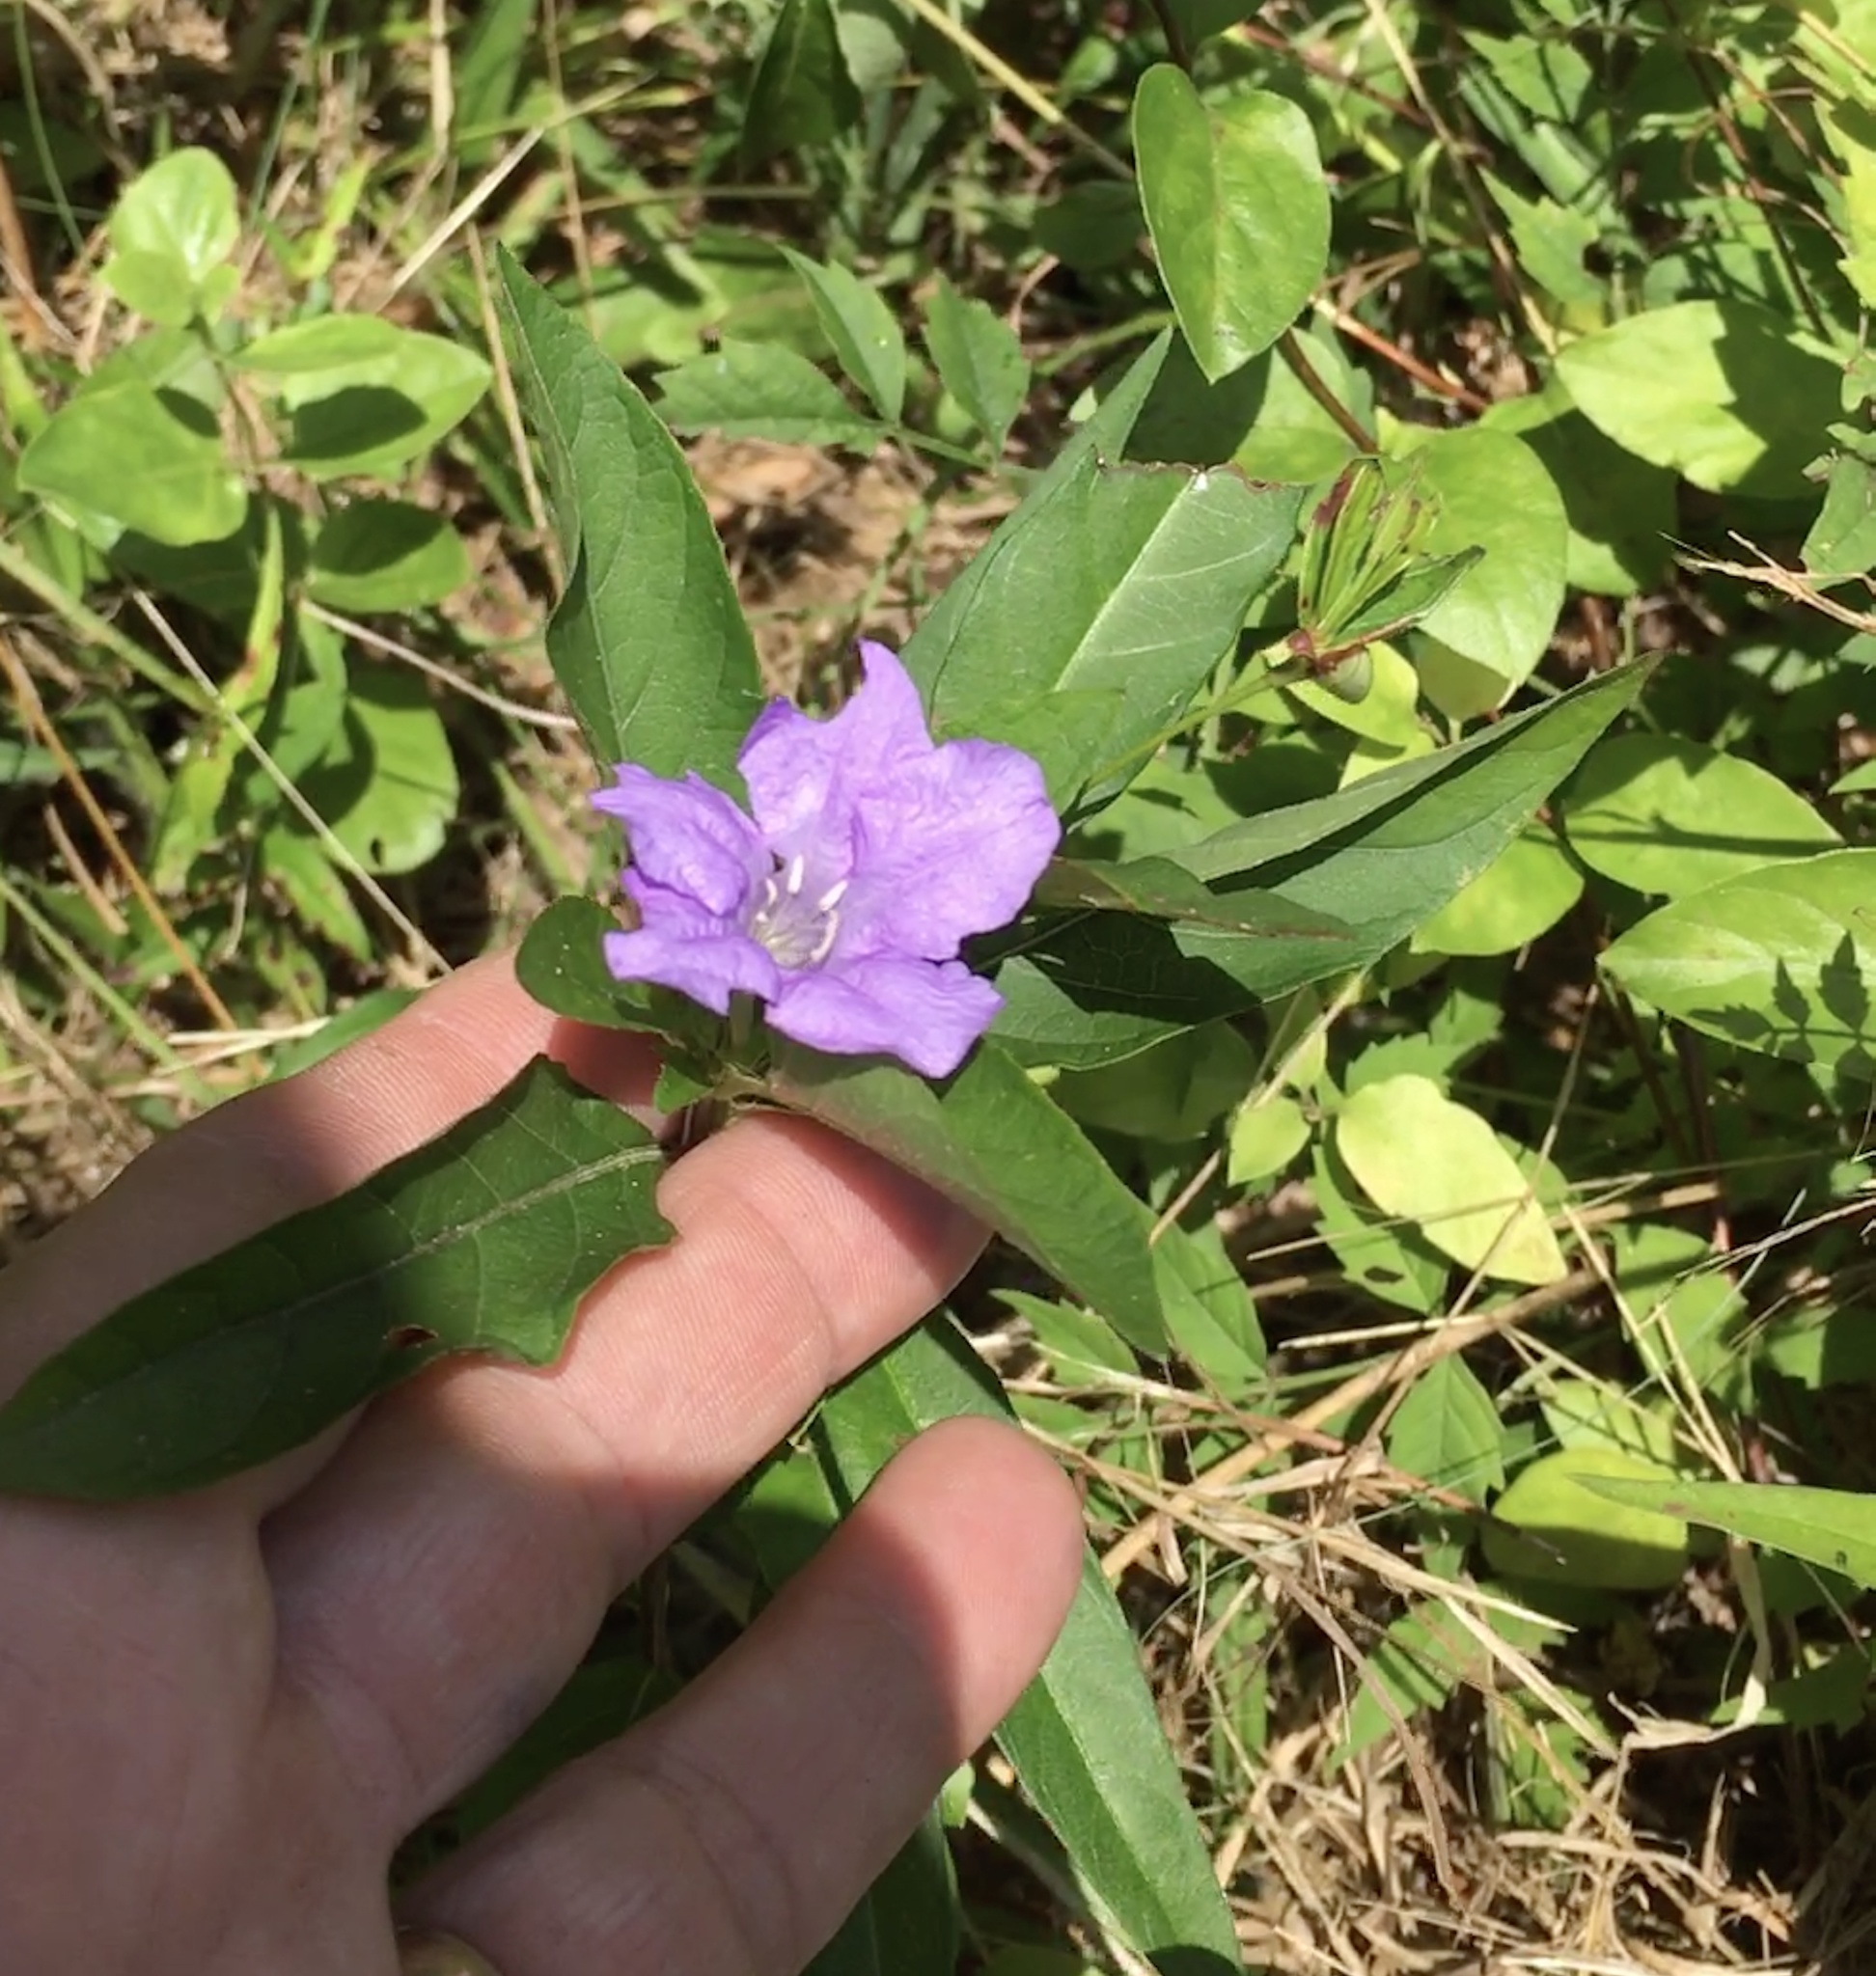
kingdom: Plantae
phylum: Tracheophyta
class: Magnoliopsida
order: Lamiales
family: Acanthaceae
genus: Ruellia
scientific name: Ruellia caroliniensis
